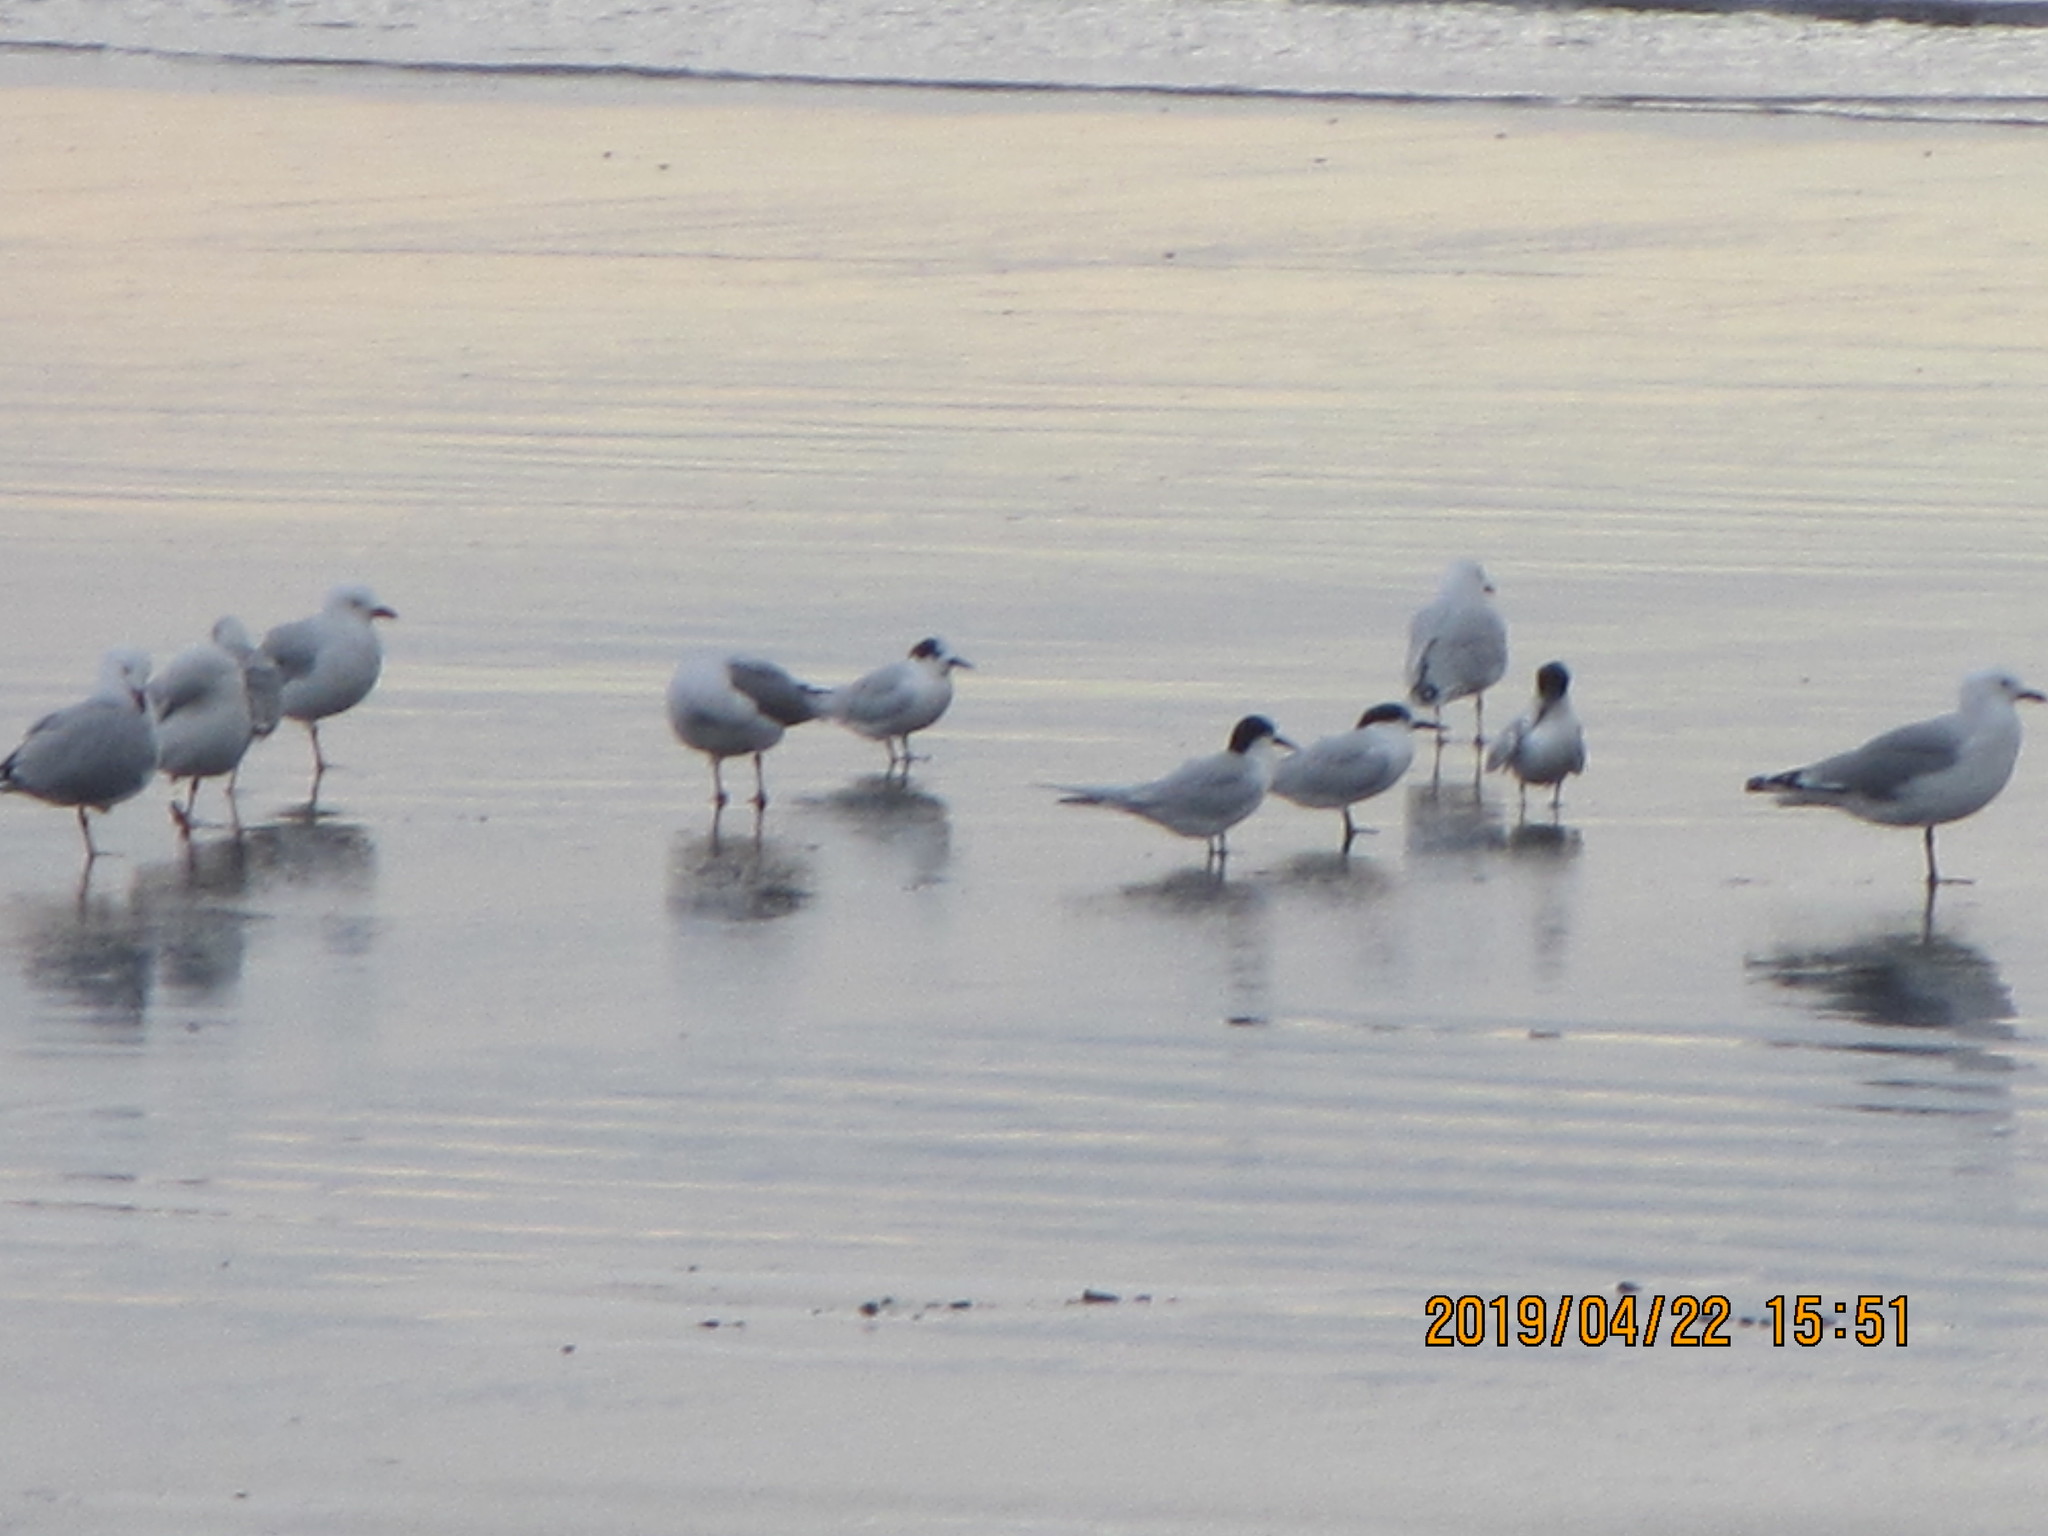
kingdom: Animalia
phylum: Chordata
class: Aves
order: Charadriiformes
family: Laridae
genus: Sterna
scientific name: Sterna striata
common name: White-fronted tern
